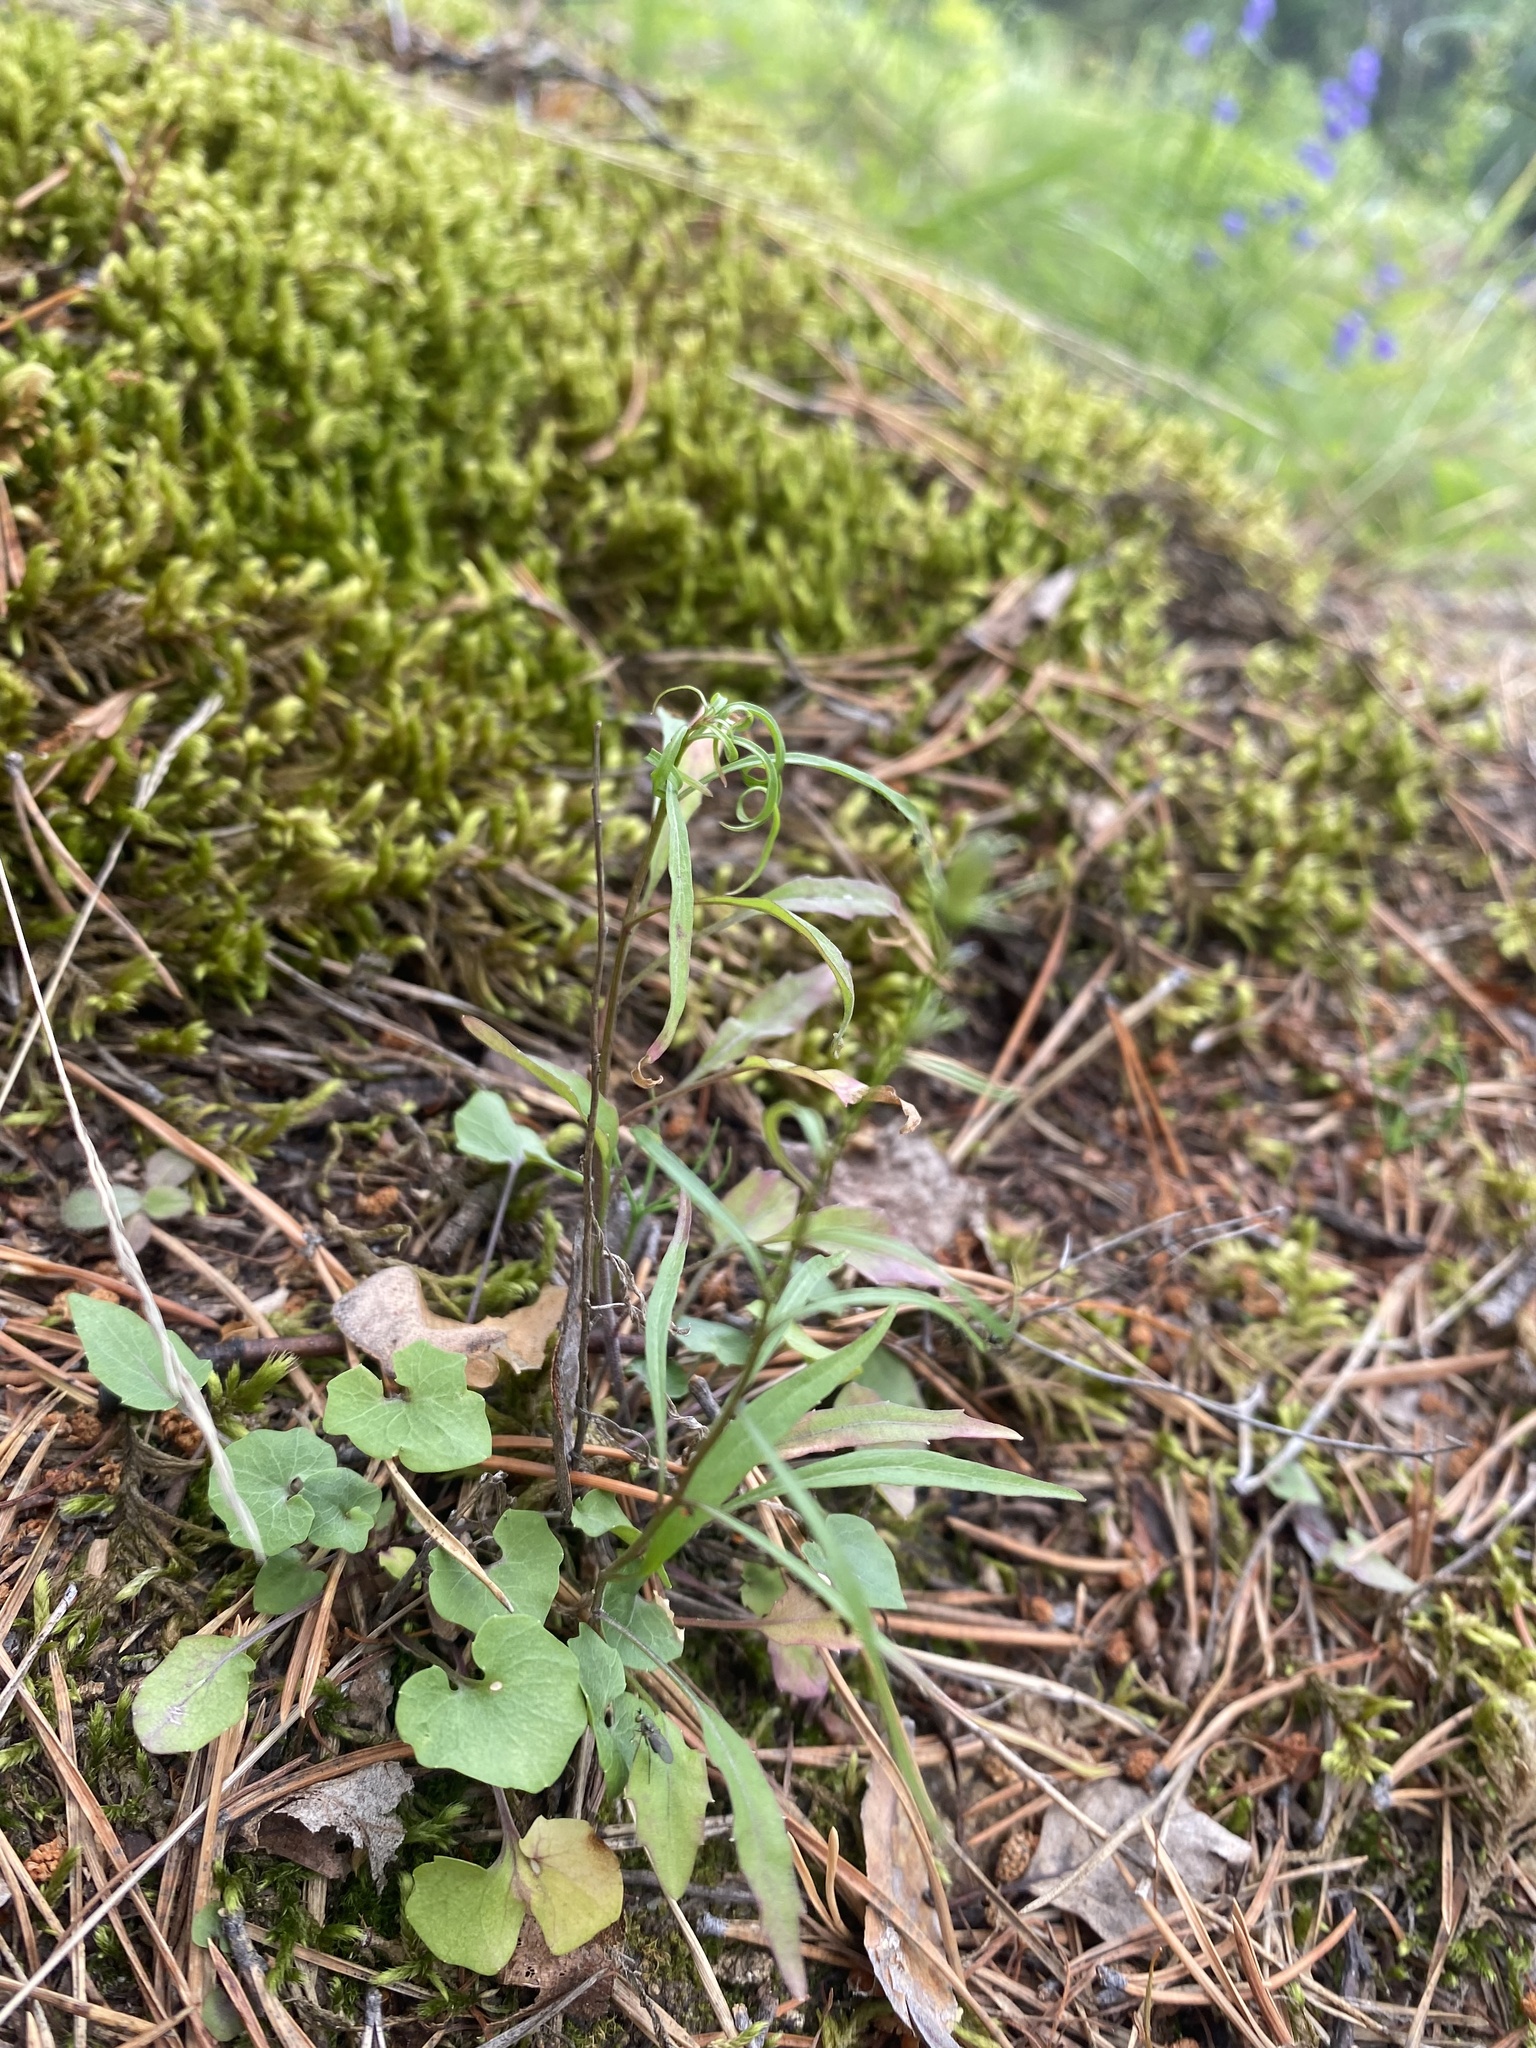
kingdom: Plantae
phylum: Tracheophyta
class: Magnoliopsida
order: Asterales
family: Campanulaceae
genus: Campanula
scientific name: Campanula rotundifolia
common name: Harebell
